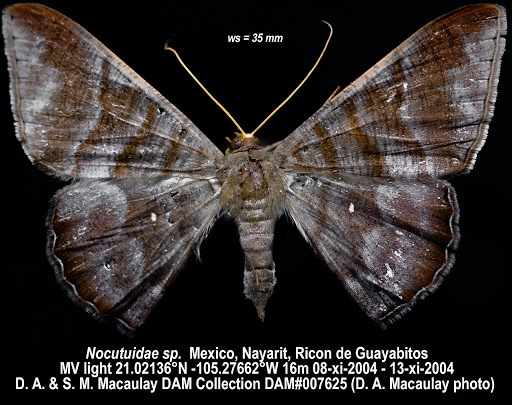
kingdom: Animalia
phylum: Arthropoda
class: Insecta
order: Lepidoptera
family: Geometridae
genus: Sphacelodes
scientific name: Sphacelodes vulneraria
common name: Looper moth
